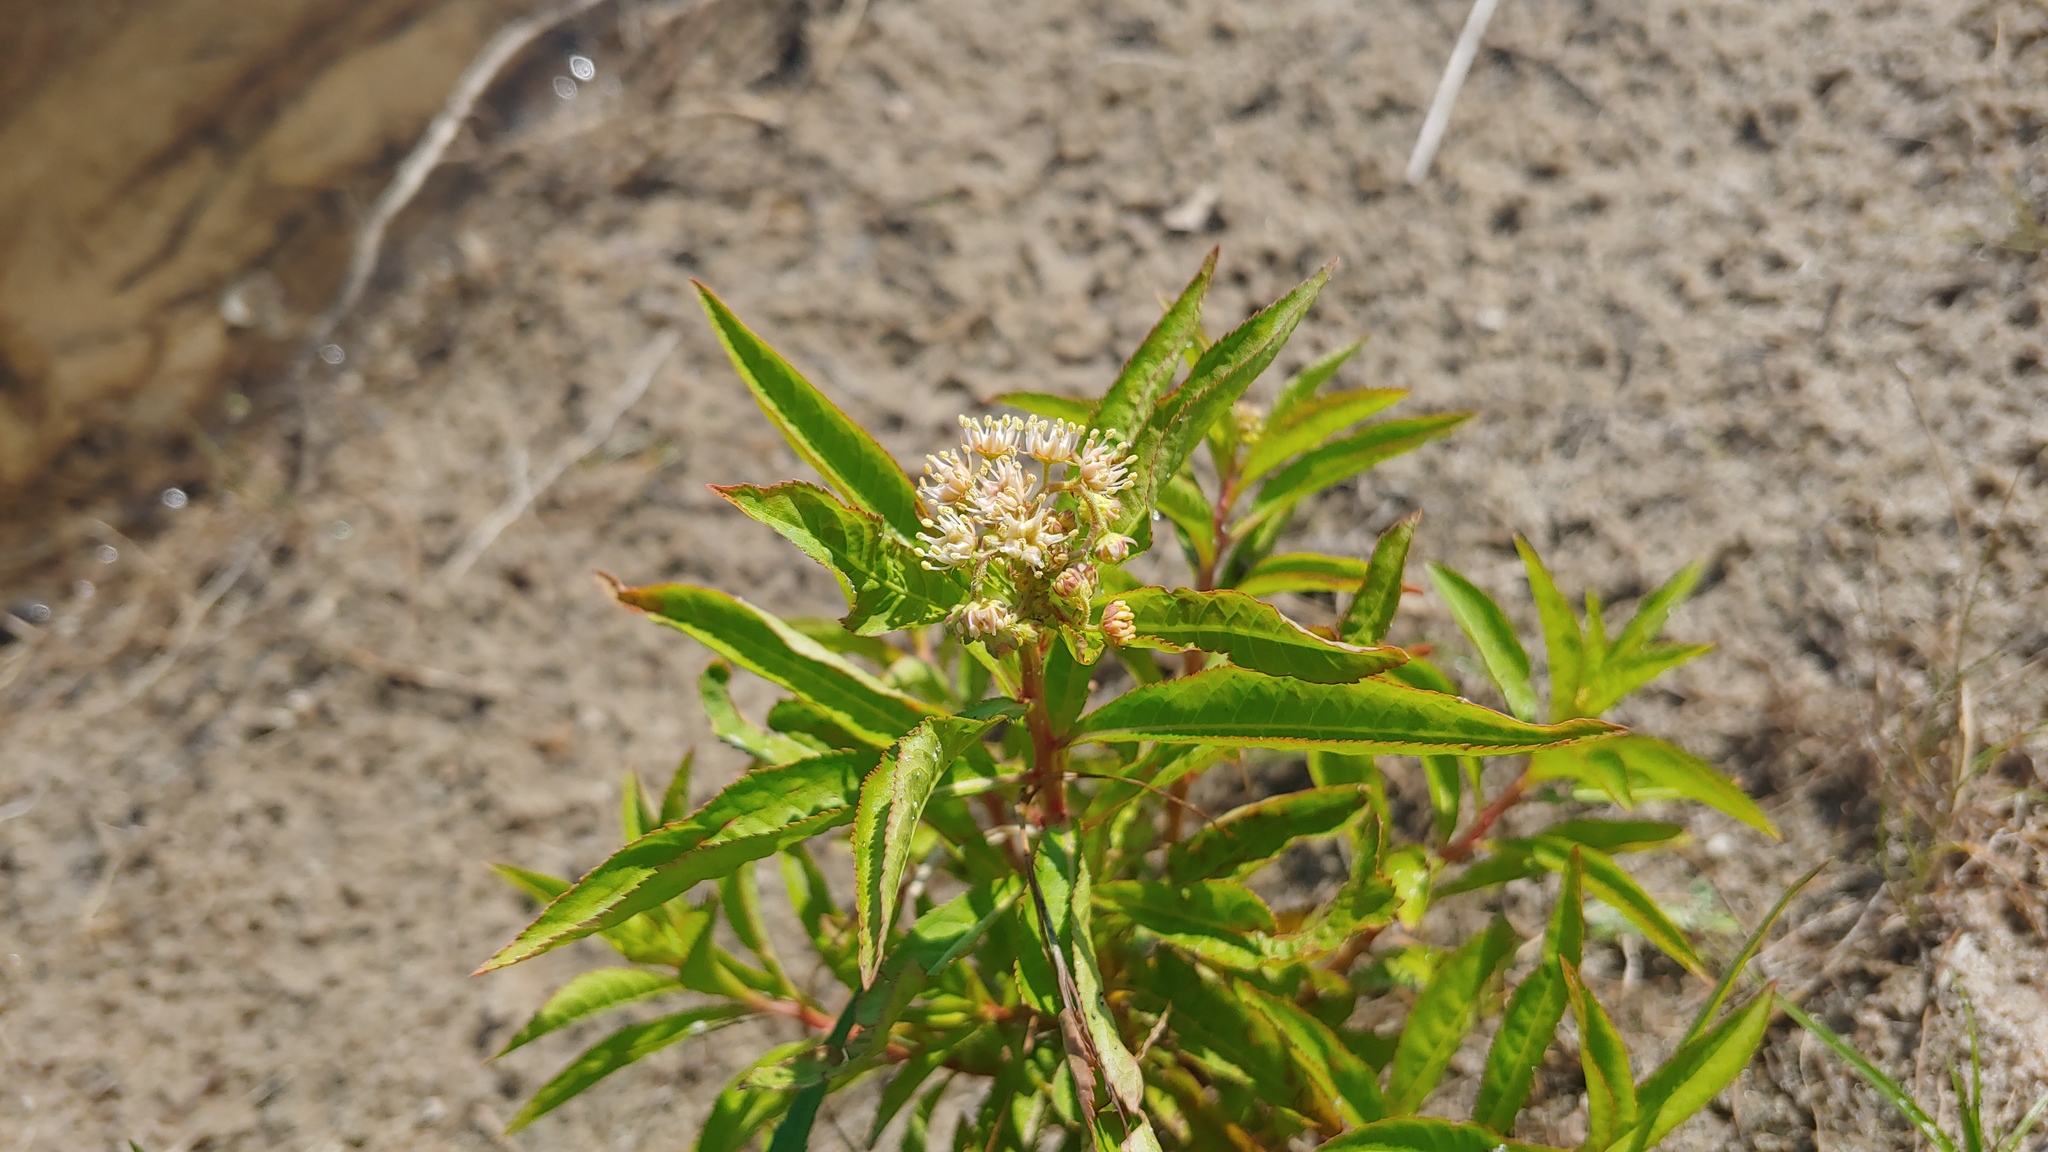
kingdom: Plantae
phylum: Tracheophyta
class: Magnoliopsida
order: Saxifragales
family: Penthoraceae
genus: Penthorum
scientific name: Penthorum sedoides
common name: Ditch stonecrop
